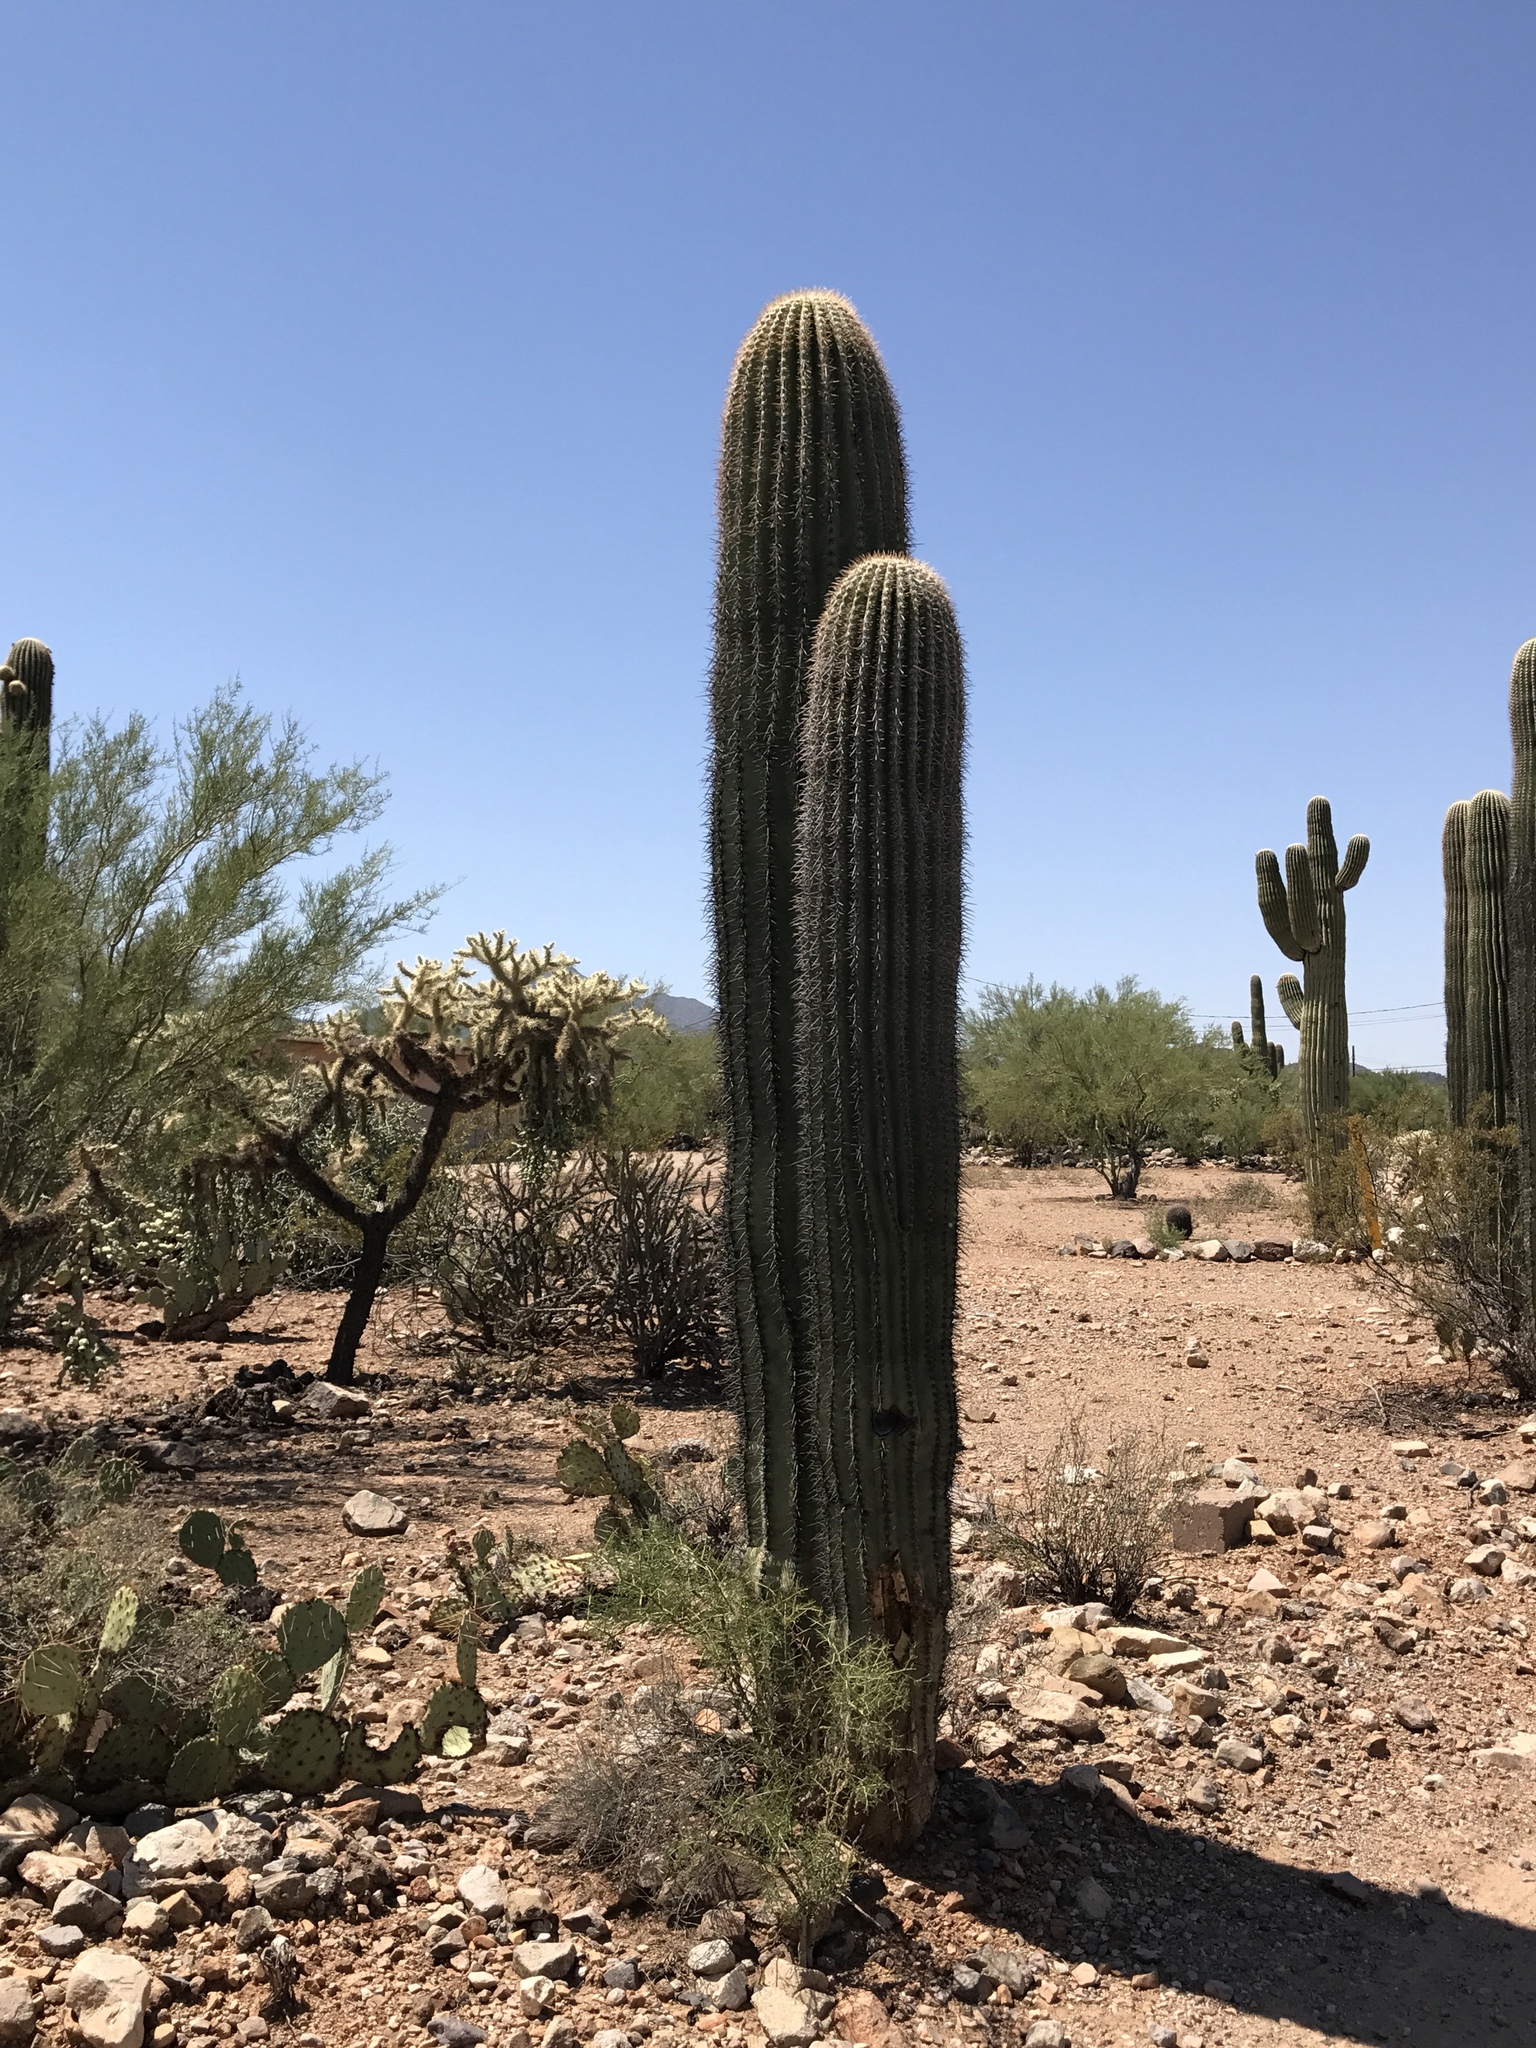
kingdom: Plantae
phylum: Tracheophyta
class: Magnoliopsida
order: Caryophyllales
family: Cactaceae
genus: Carnegiea
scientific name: Carnegiea gigantea
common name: Saguaro
